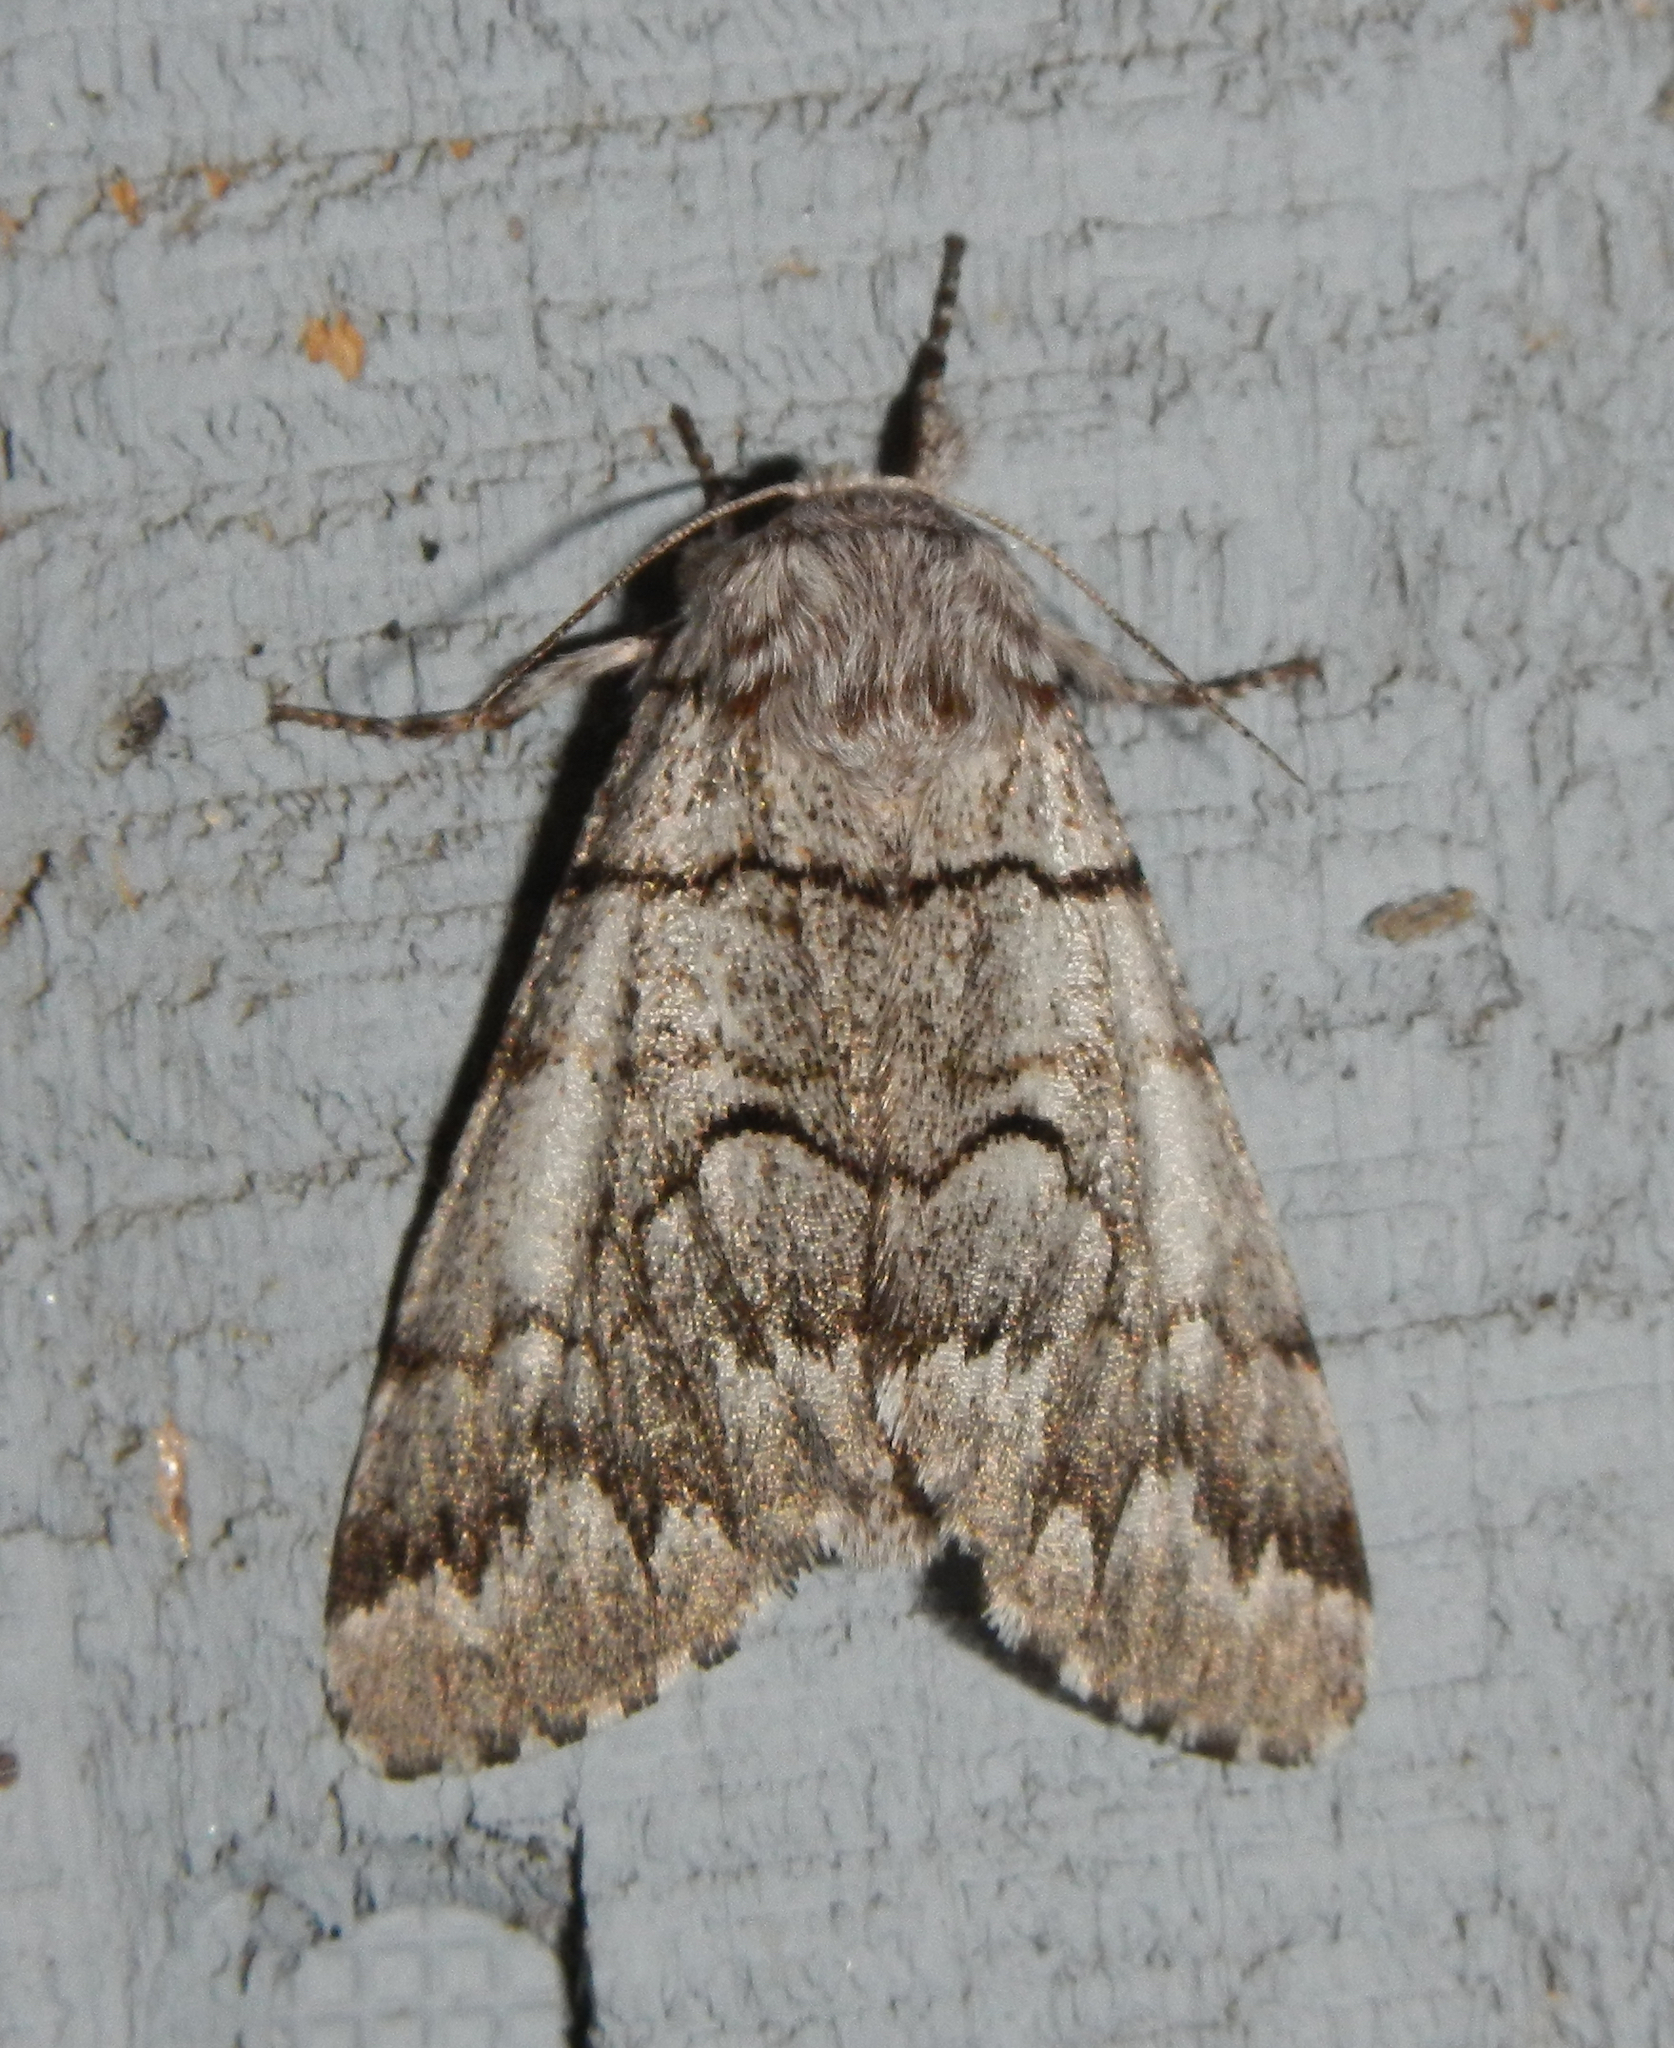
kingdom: Animalia
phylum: Arthropoda
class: Insecta
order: Lepidoptera
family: Noctuidae
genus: Panthea
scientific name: Panthea furcilla
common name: Eastern panthea moth
